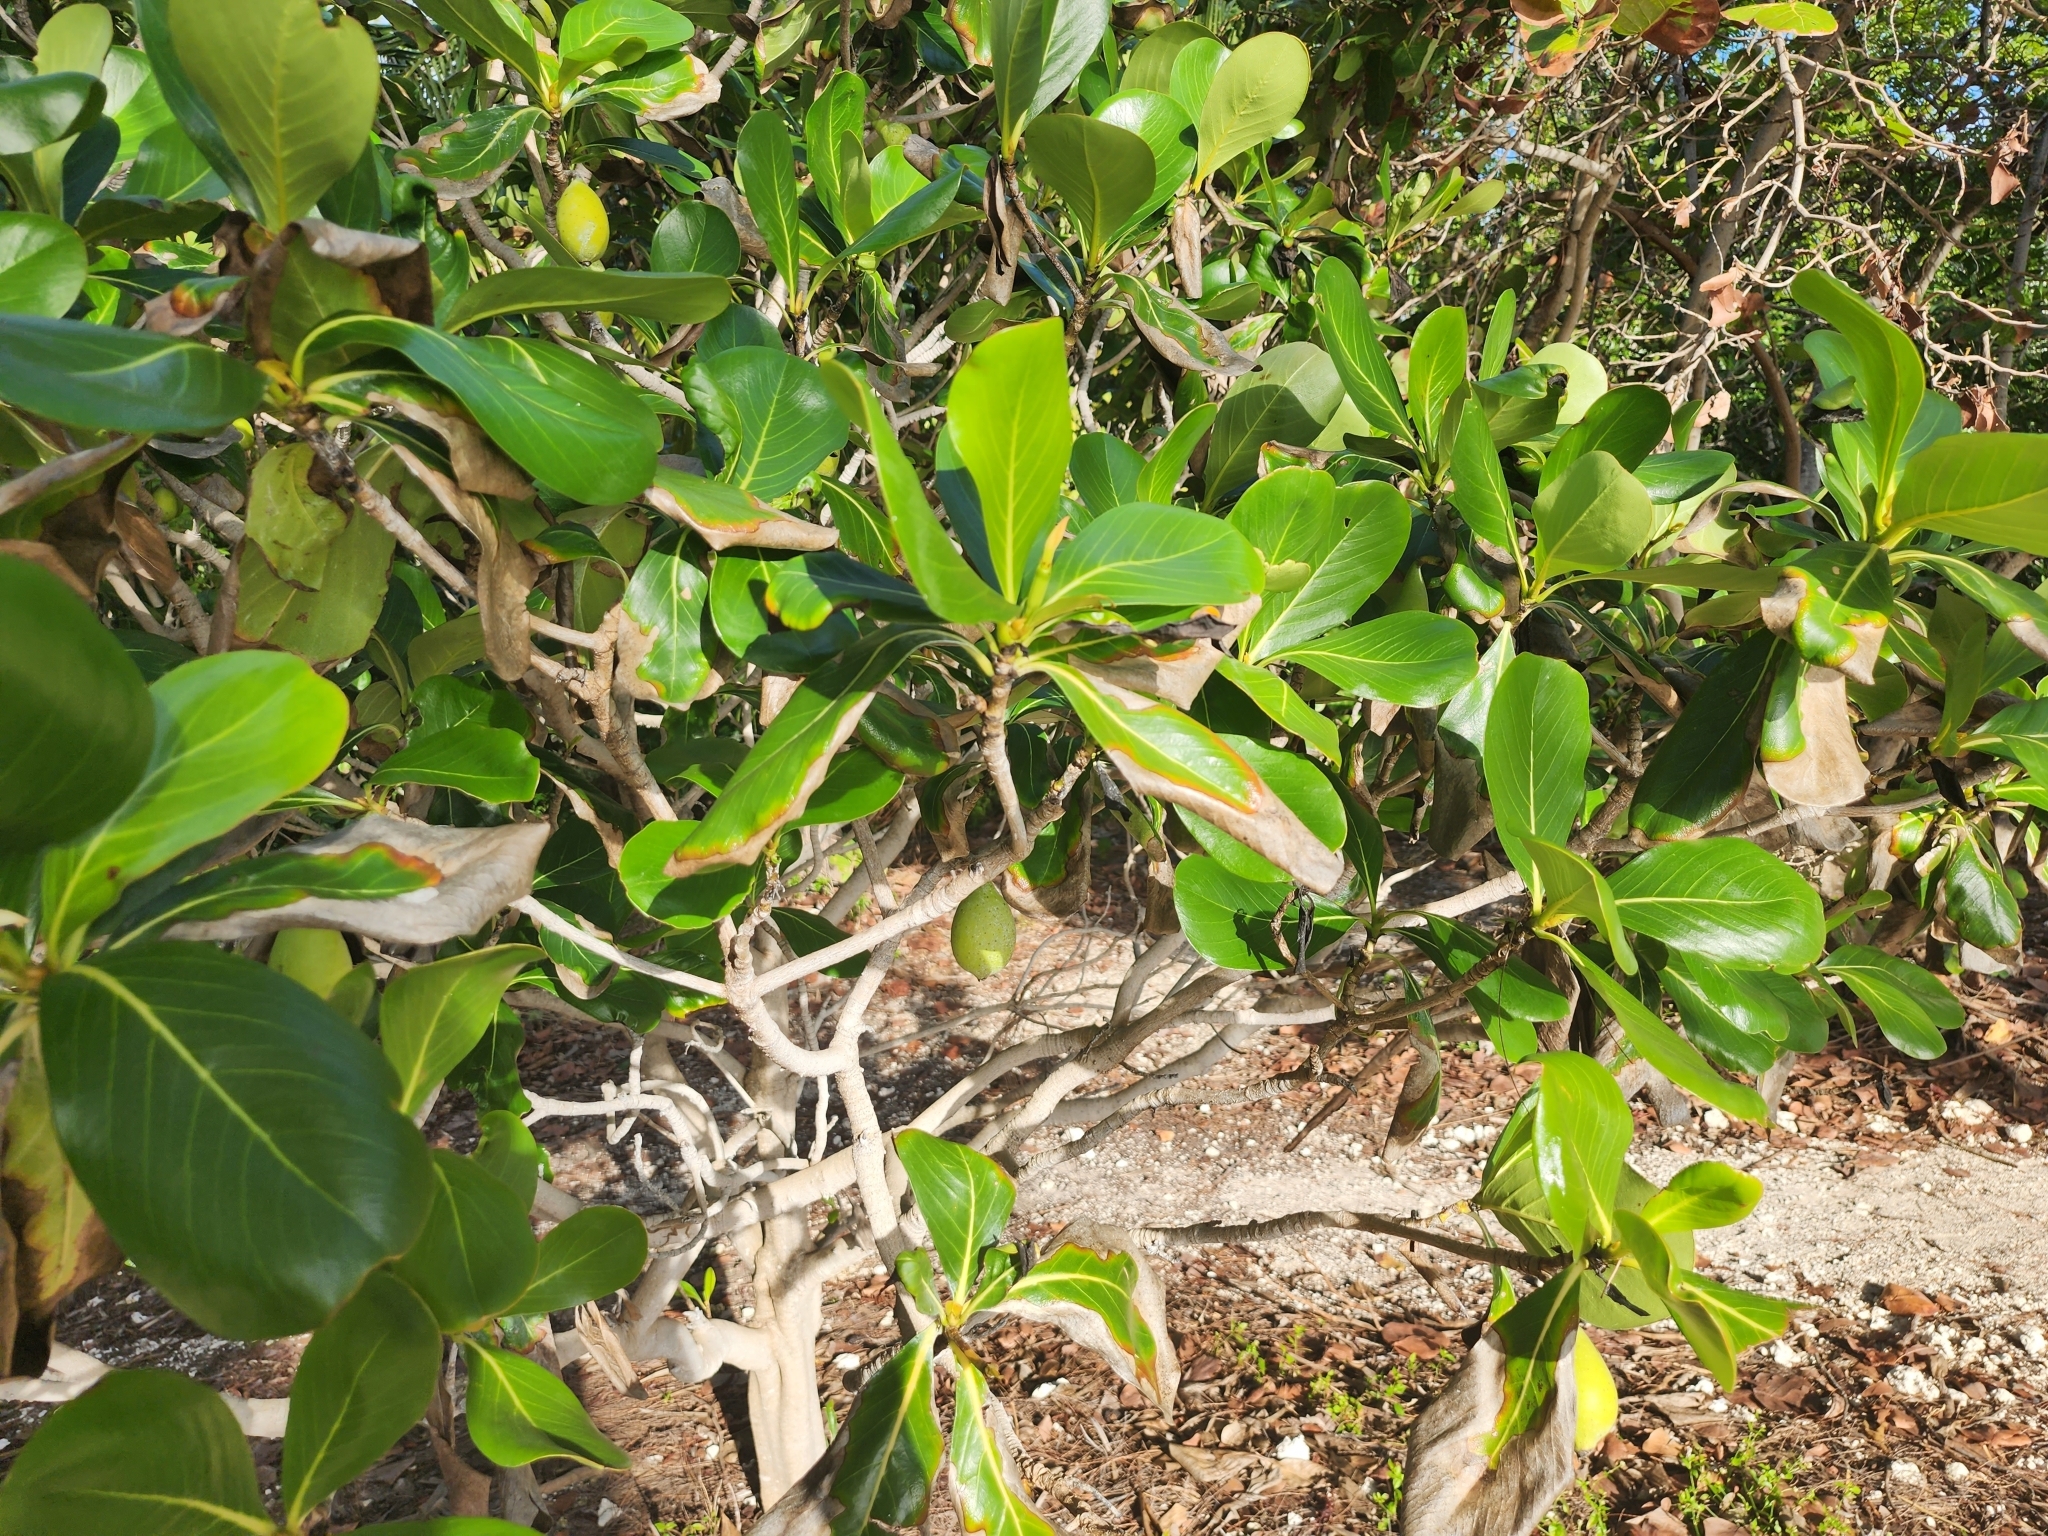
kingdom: Plantae
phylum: Tracheophyta
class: Magnoliopsida
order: Gentianales
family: Rubiaceae
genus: Casasia
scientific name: Casasia clusiifolia
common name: Seven-year apple
